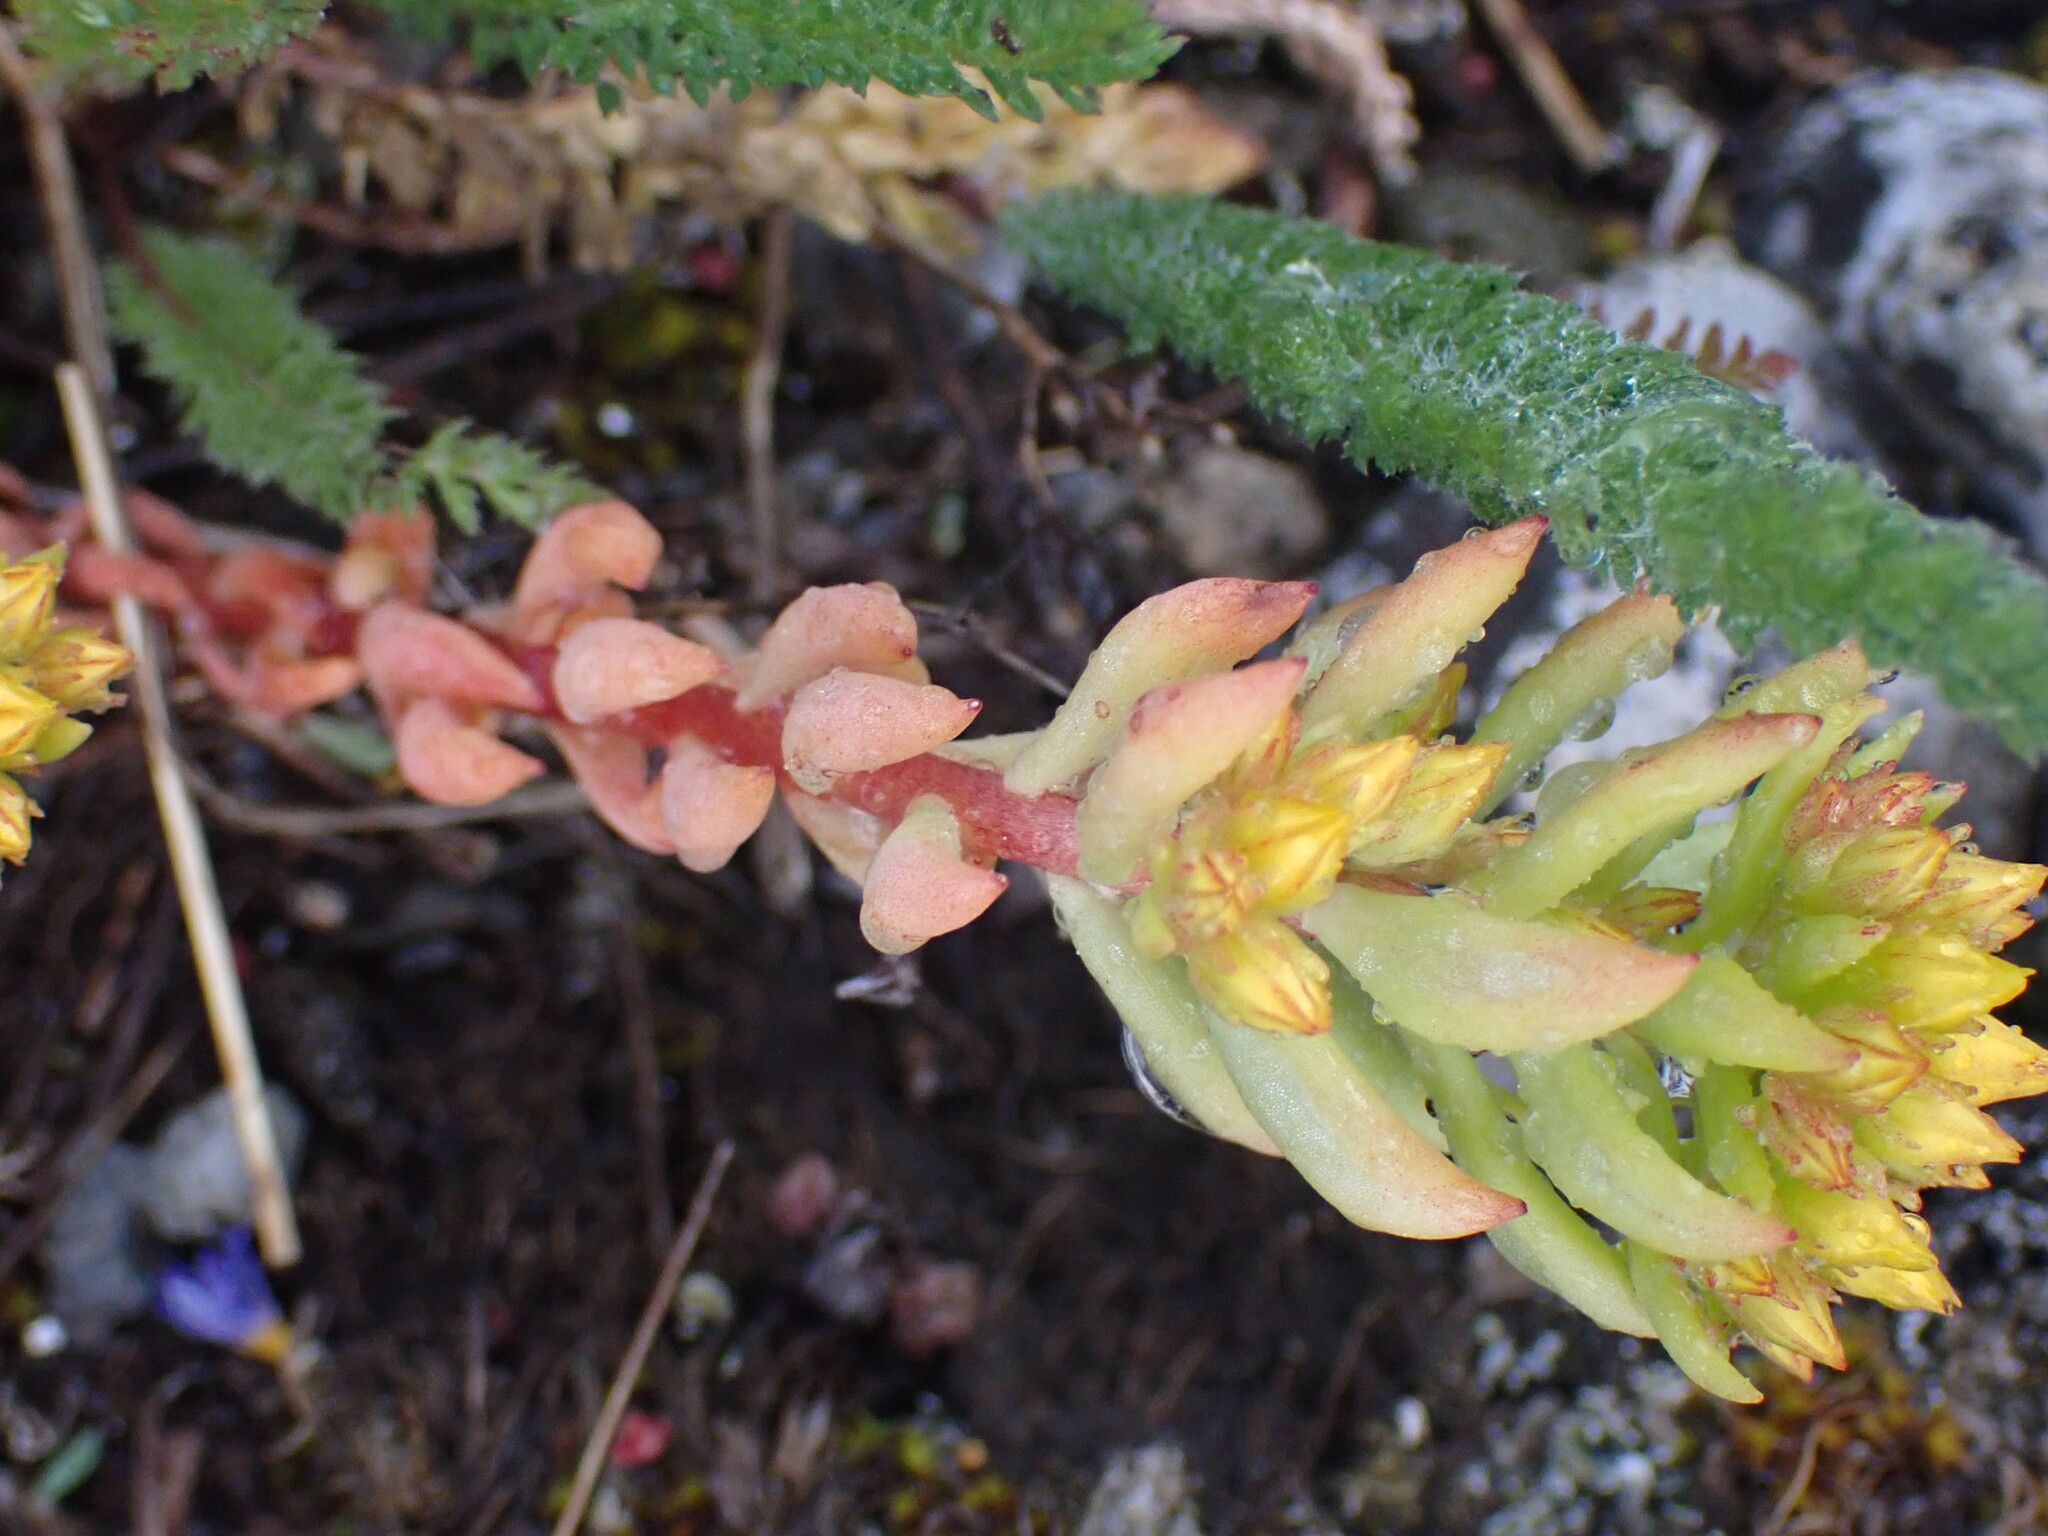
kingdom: Plantae
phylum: Tracheophyta
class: Magnoliopsida
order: Saxifragales
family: Crassulaceae
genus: Sedum
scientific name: Sedum lanceolatum
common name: Common stonecrop
